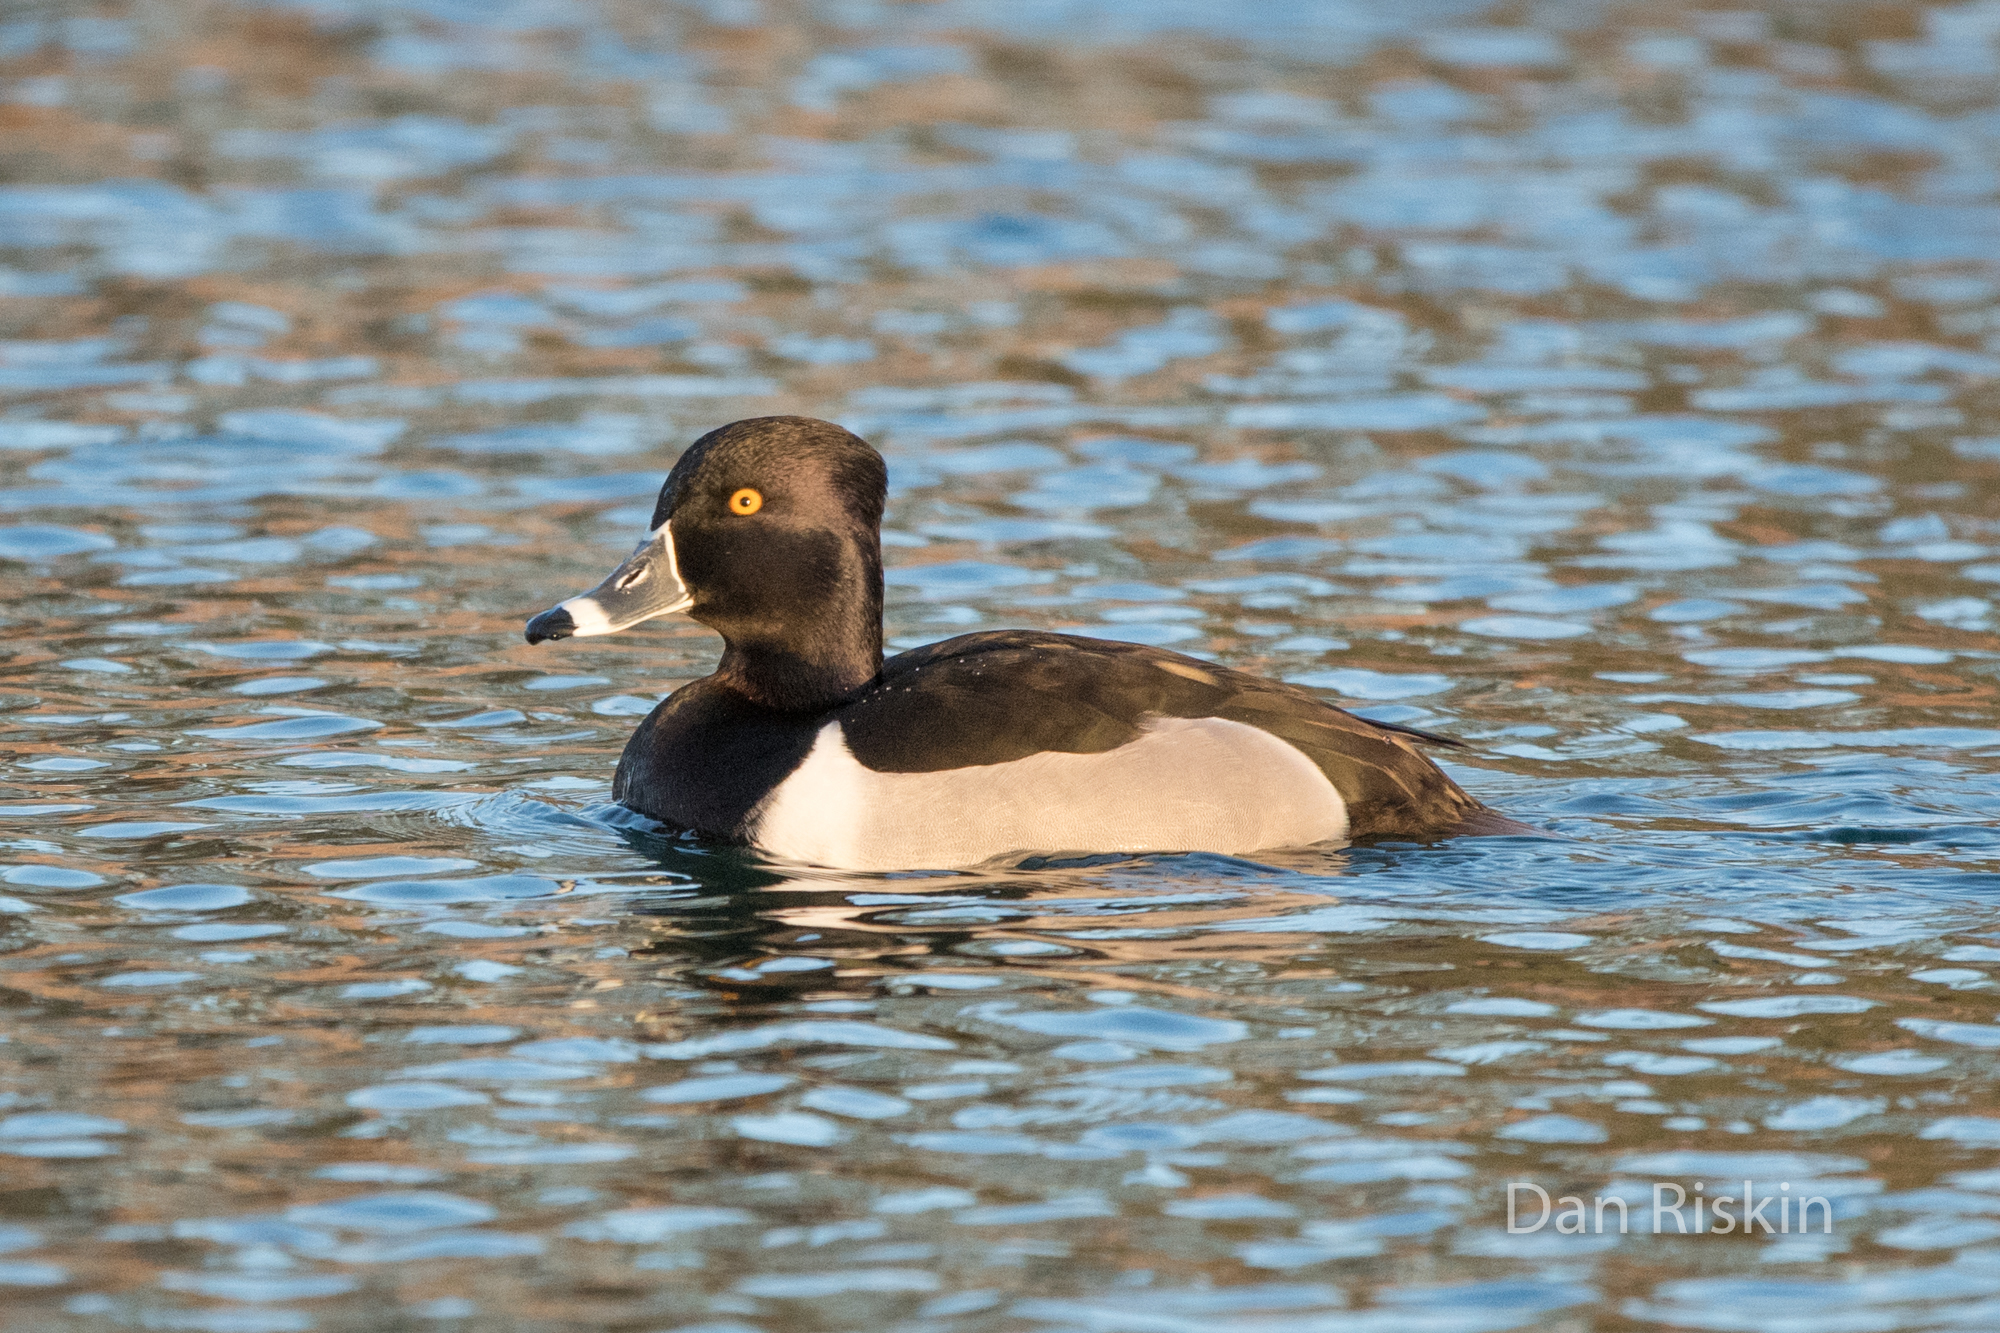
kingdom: Animalia
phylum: Chordata
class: Aves
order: Anseriformes
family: Anatidae
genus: Aythya
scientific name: Aythya collaris
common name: Ring-necked duck
